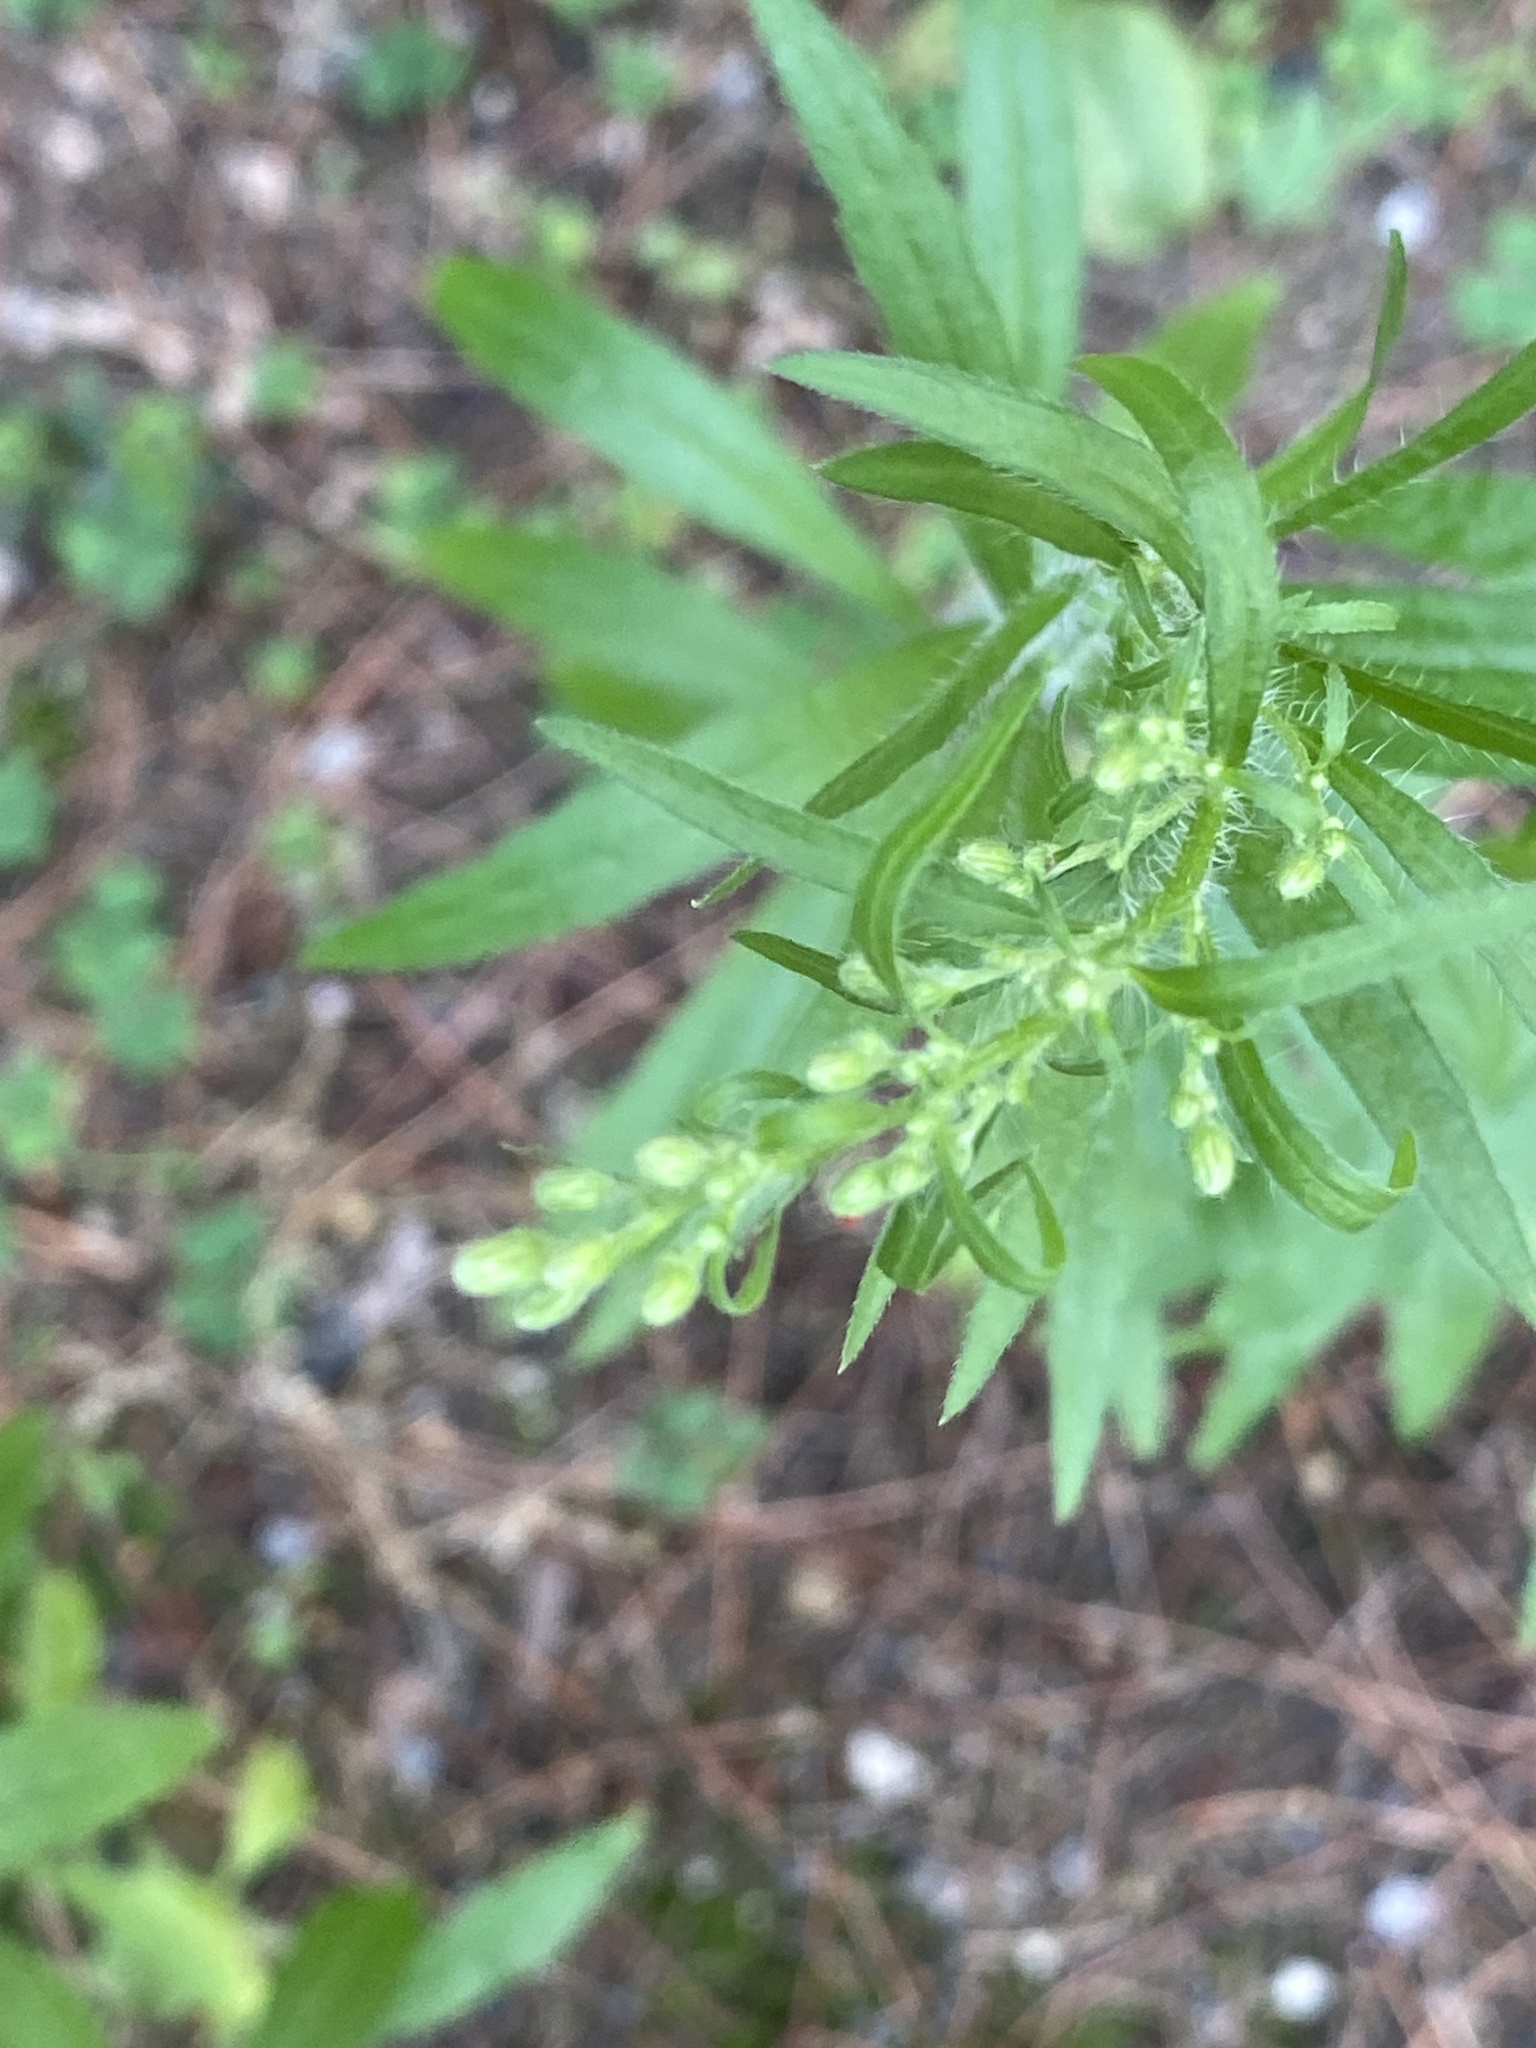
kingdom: Plantae
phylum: Tracheophyta
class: Magnoliopsida
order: Asterales
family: Asteraceae
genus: Erigeron
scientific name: Erigeron canadensis
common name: Canadian fleabane
